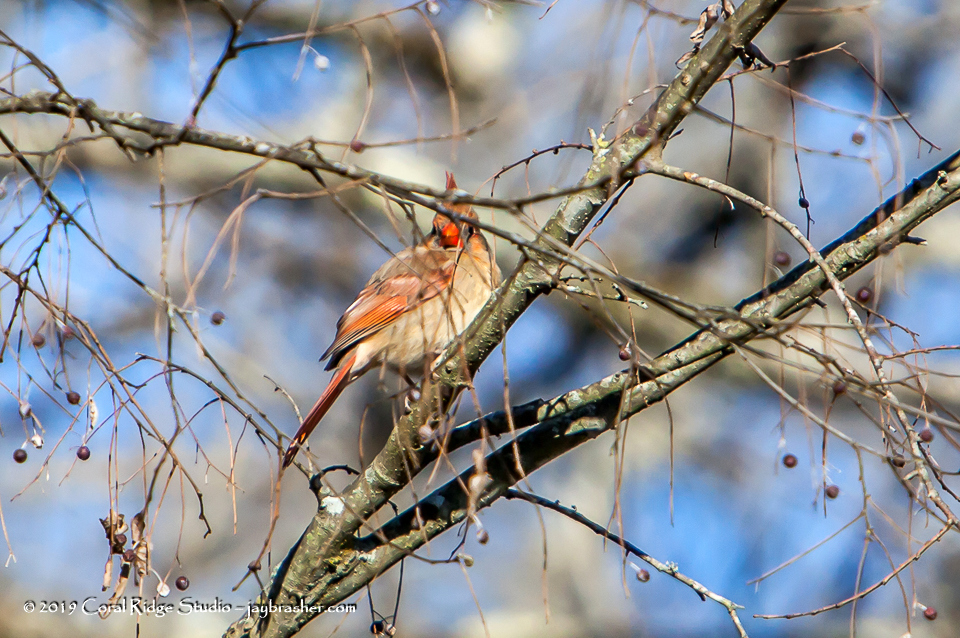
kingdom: Animalia
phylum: Chordata
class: Aves
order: Passeriformes
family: Cardinalidae
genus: Cardinalis
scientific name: Cardinalis cardinalis
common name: Northern cardinal
